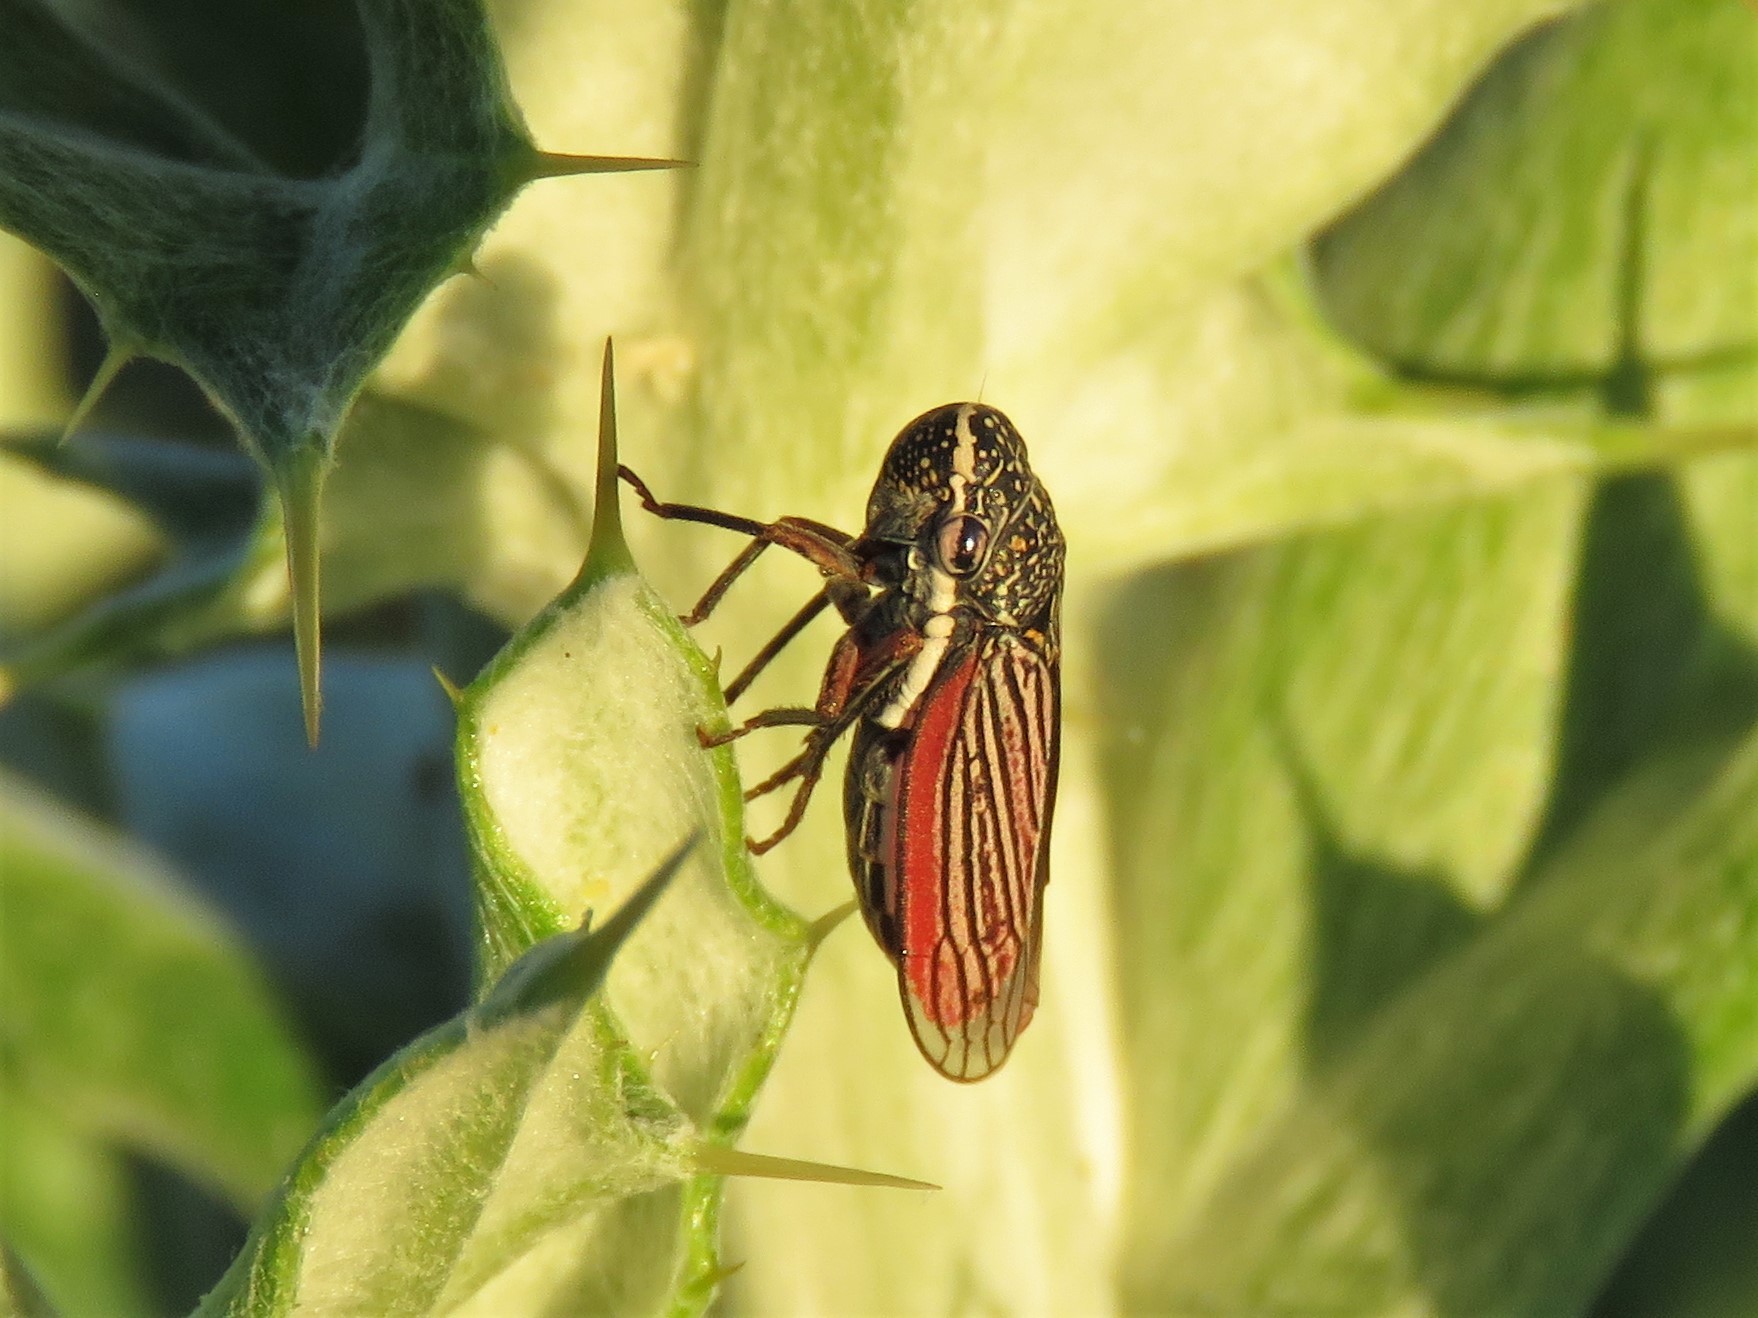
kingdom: Animalia
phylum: Arthropoda
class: Insecta
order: Hemiptera
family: Cicadellidae
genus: Cuerna
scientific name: Cuerna costalis
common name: Lateral-lined sharpshooter
